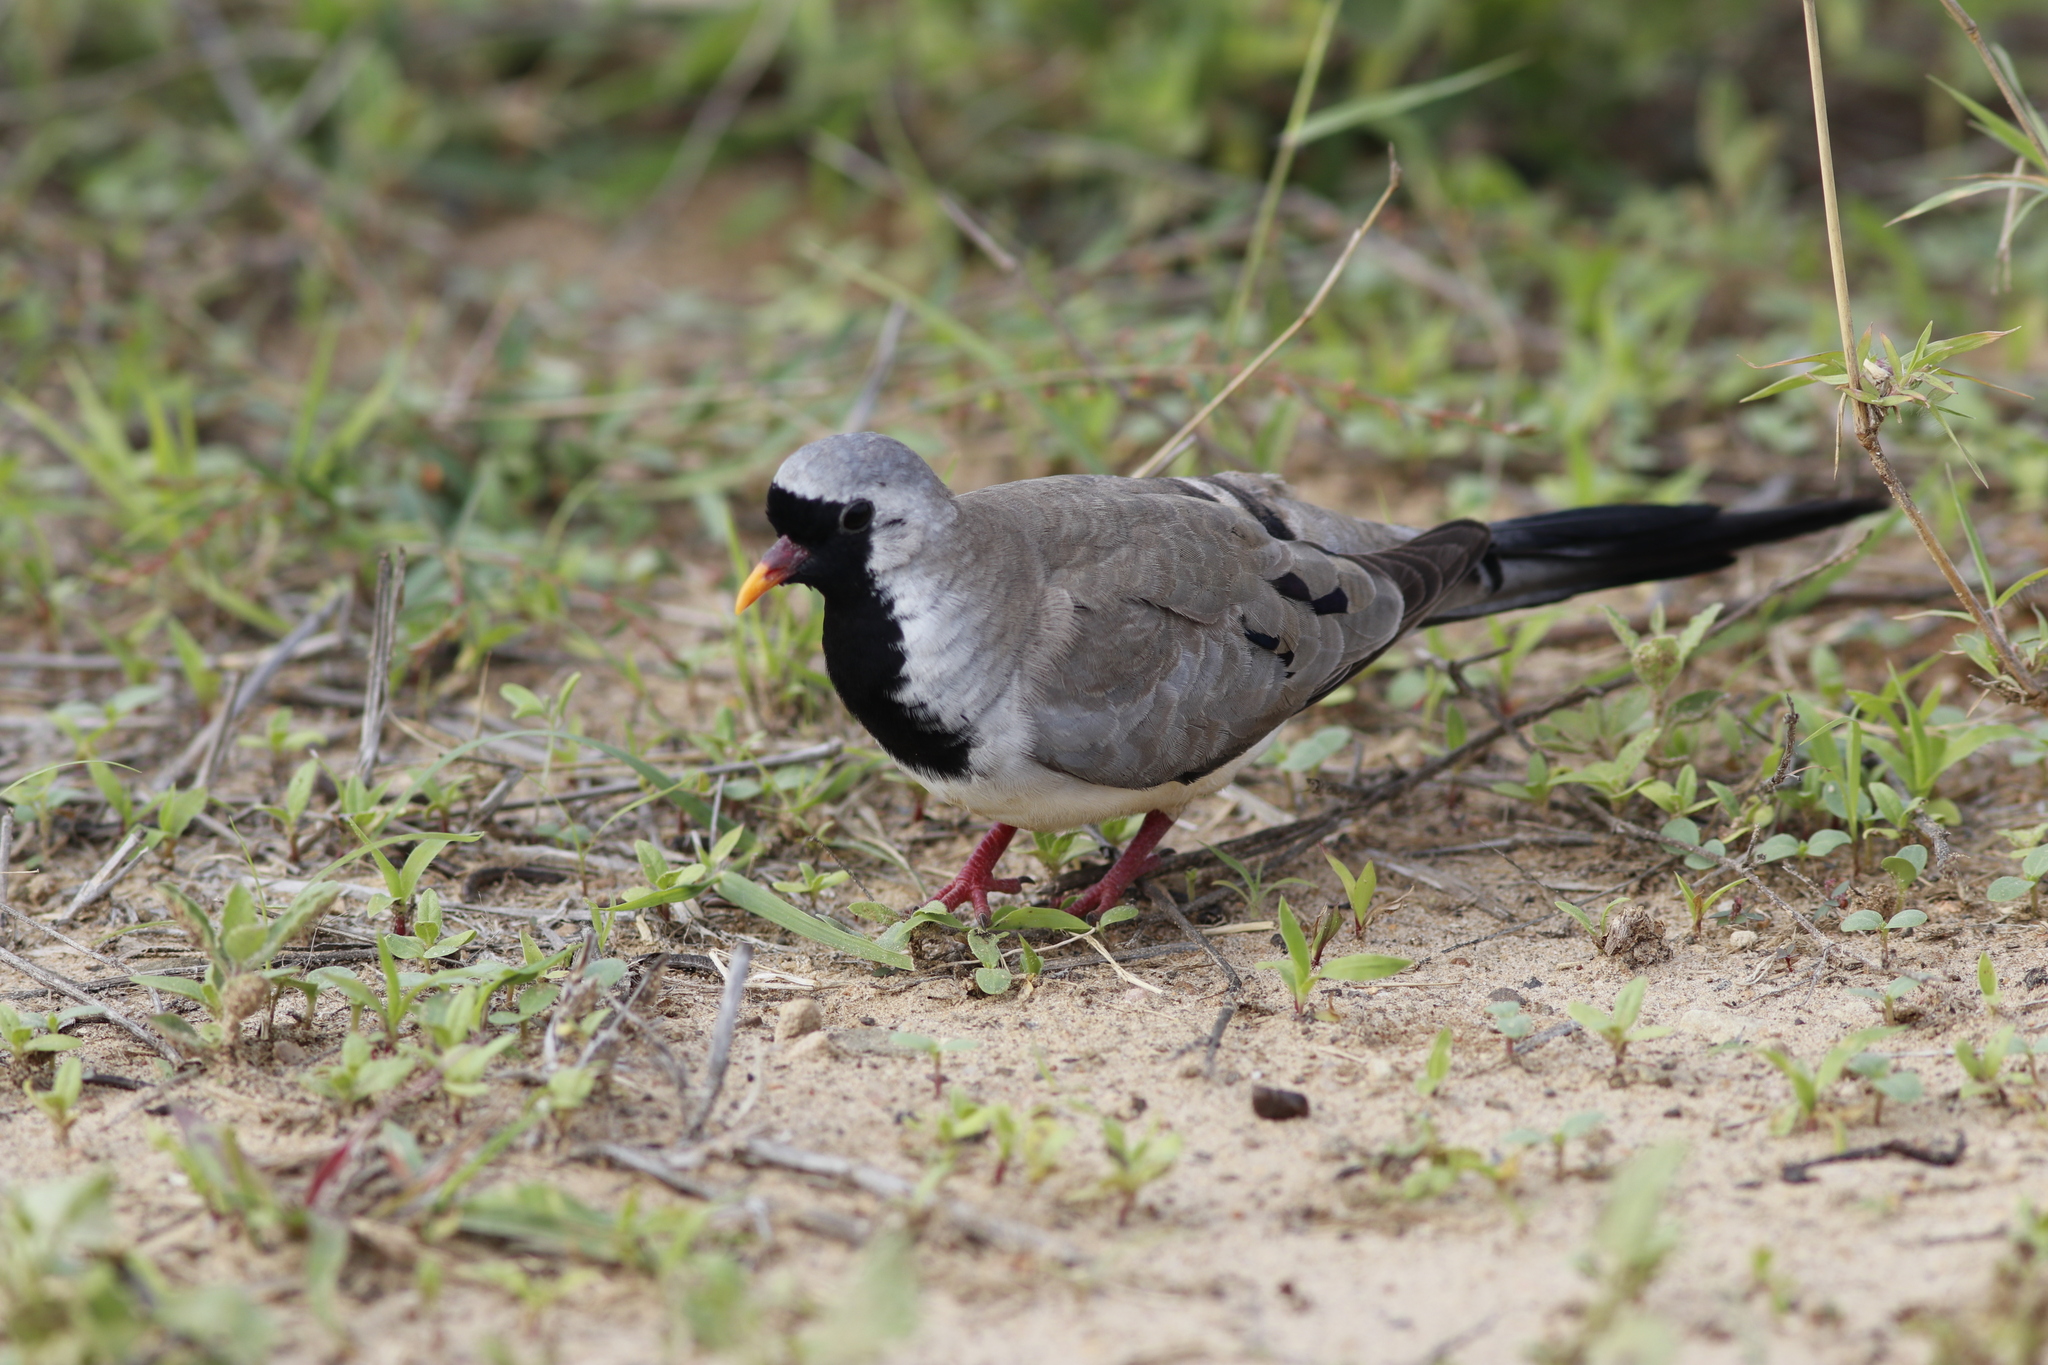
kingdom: Animalia
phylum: Chordata
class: Aves
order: Columbiformes
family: Columbidae
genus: Oena
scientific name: Oena capensis
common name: Namaqua dove
